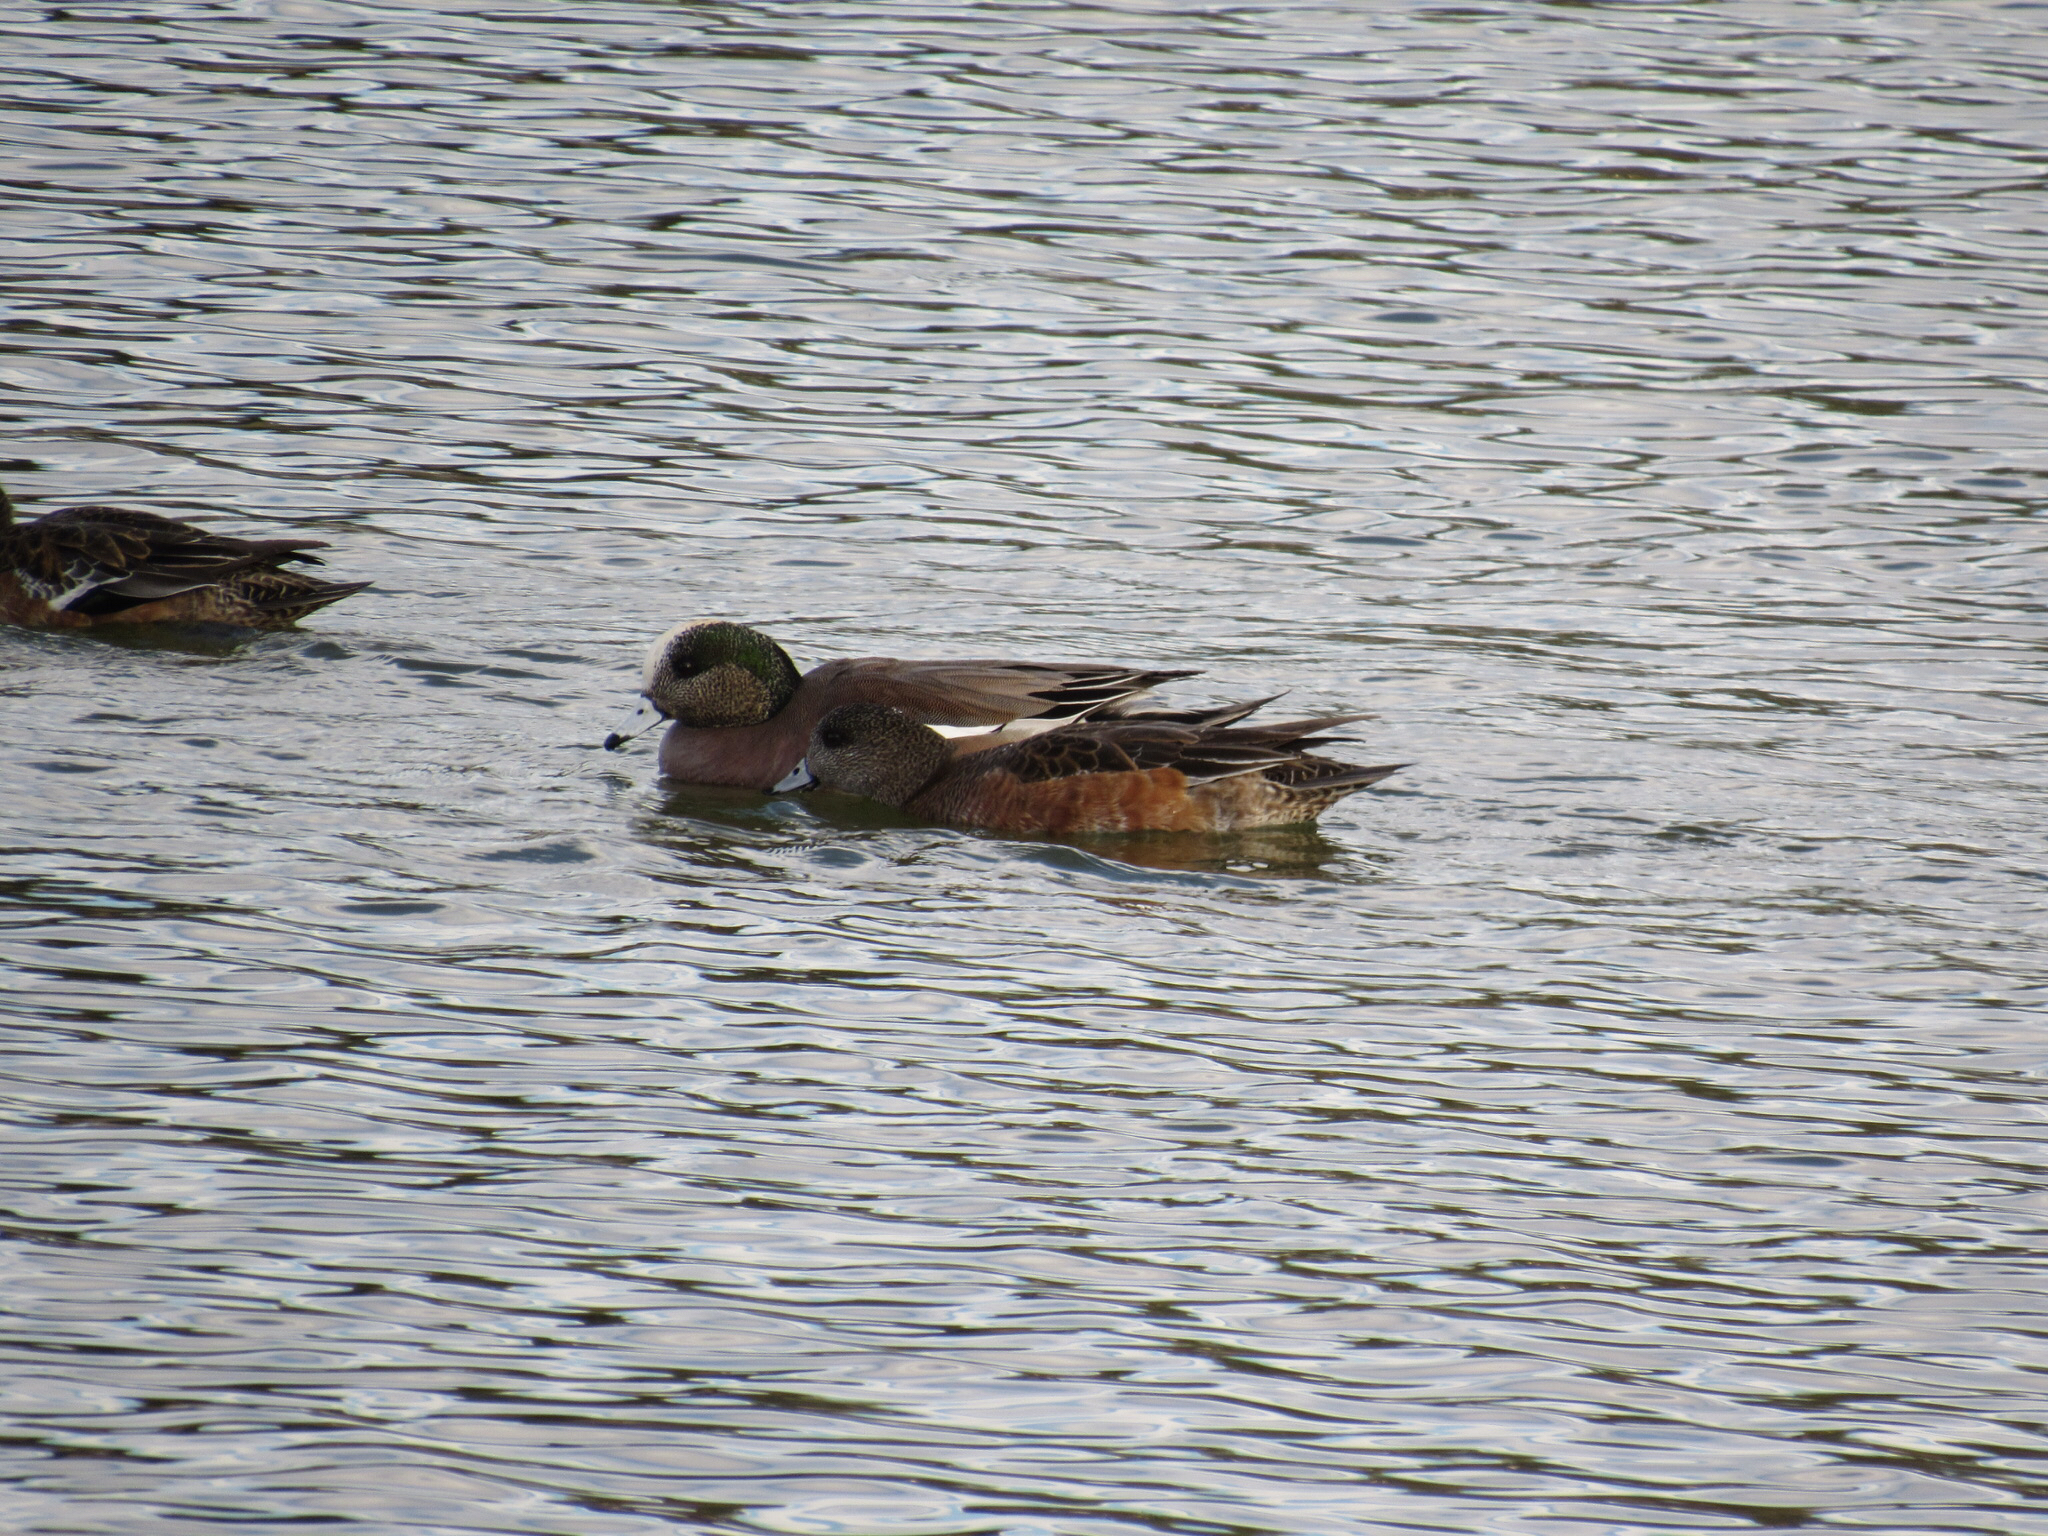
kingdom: Animalia
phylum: Chordata
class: Aves
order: Anseriformes
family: Anatidae
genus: Mareca
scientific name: Mareca americana
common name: American wigeon
